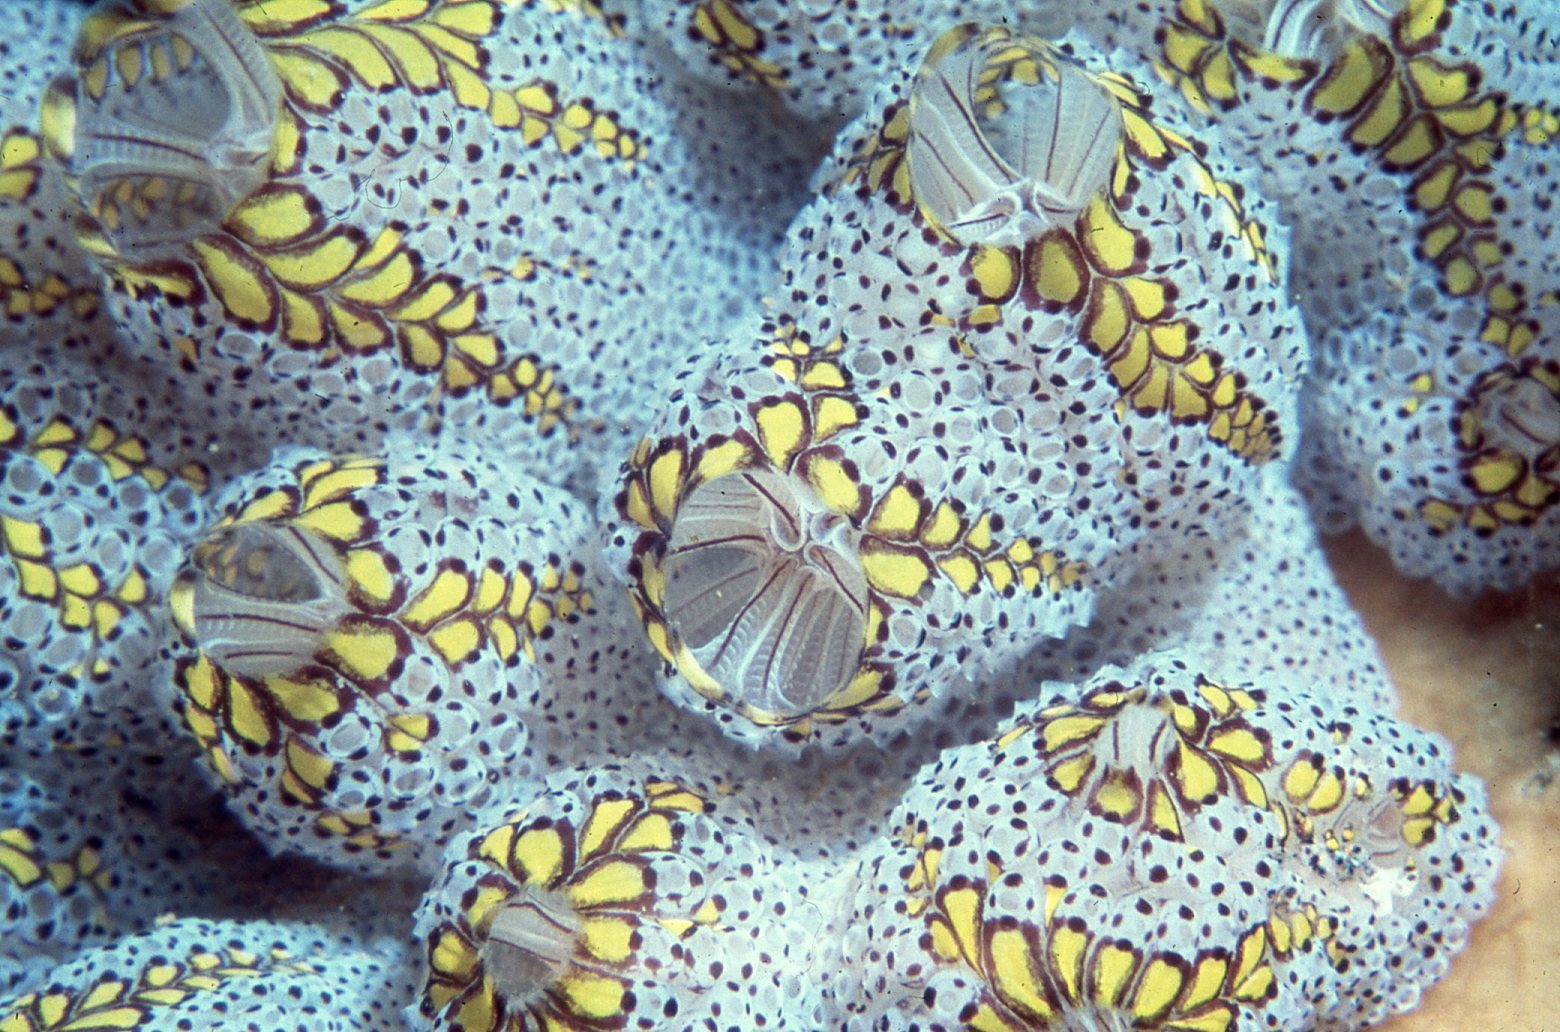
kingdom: Animalia
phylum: Chordata
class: Ascidiacea
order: Stolidobranchia
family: Styelidae
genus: Botrylloides
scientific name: Botrylloides magnicoecus
